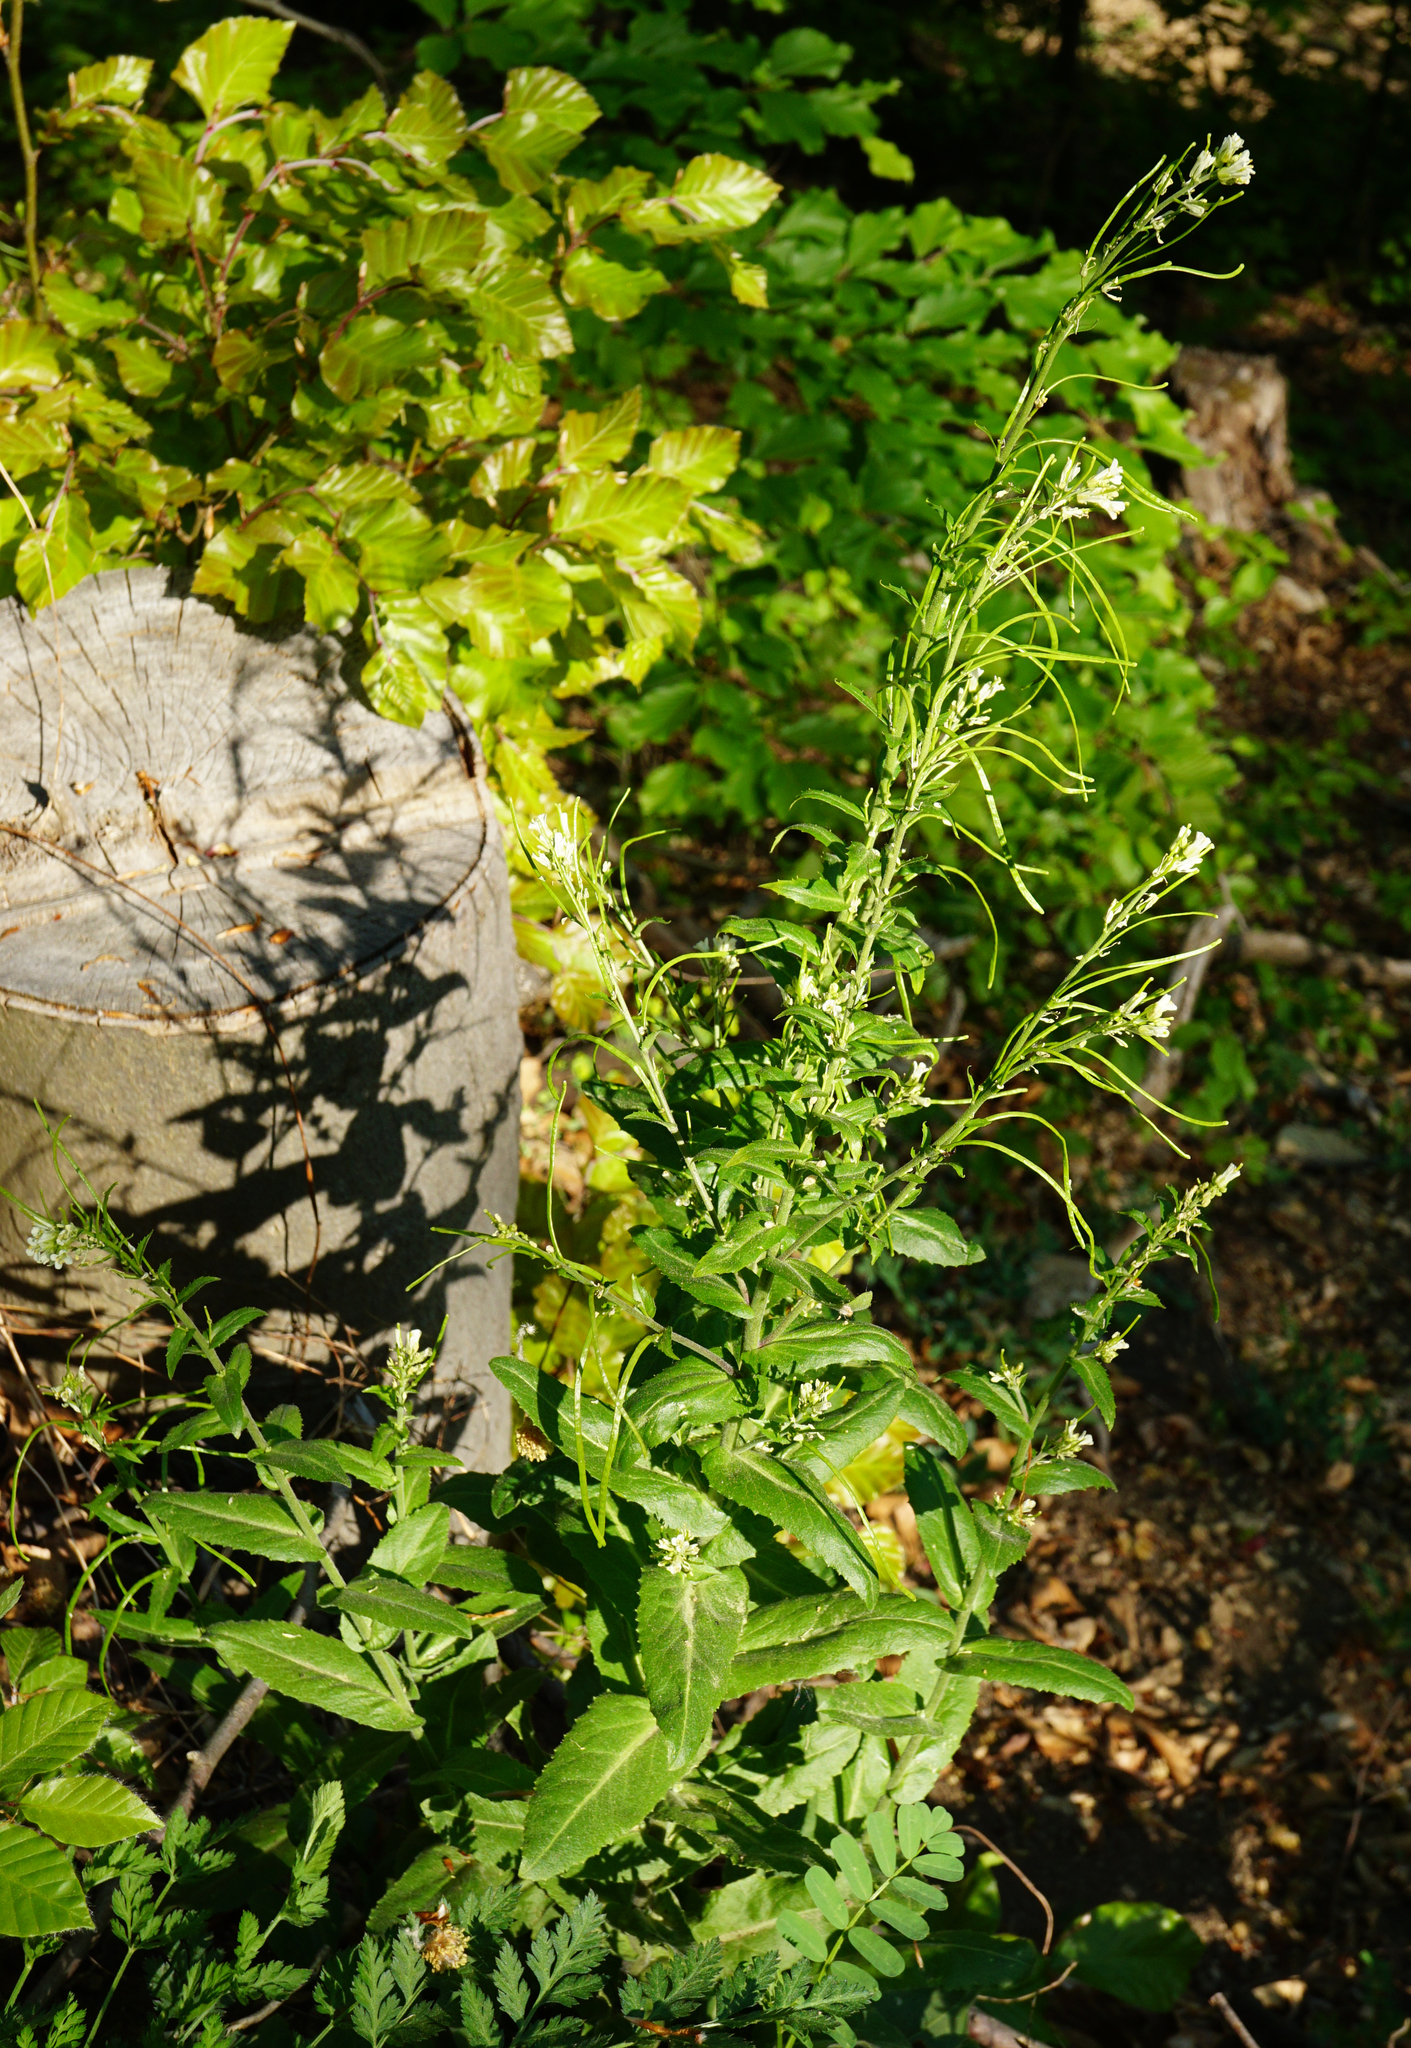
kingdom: Plantae
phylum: Tracheophyta
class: Magnoliopsida
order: Brassicales
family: Brassicaceae
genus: Pseudoturritis
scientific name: Pseudoturritis turrita
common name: Tower cress
